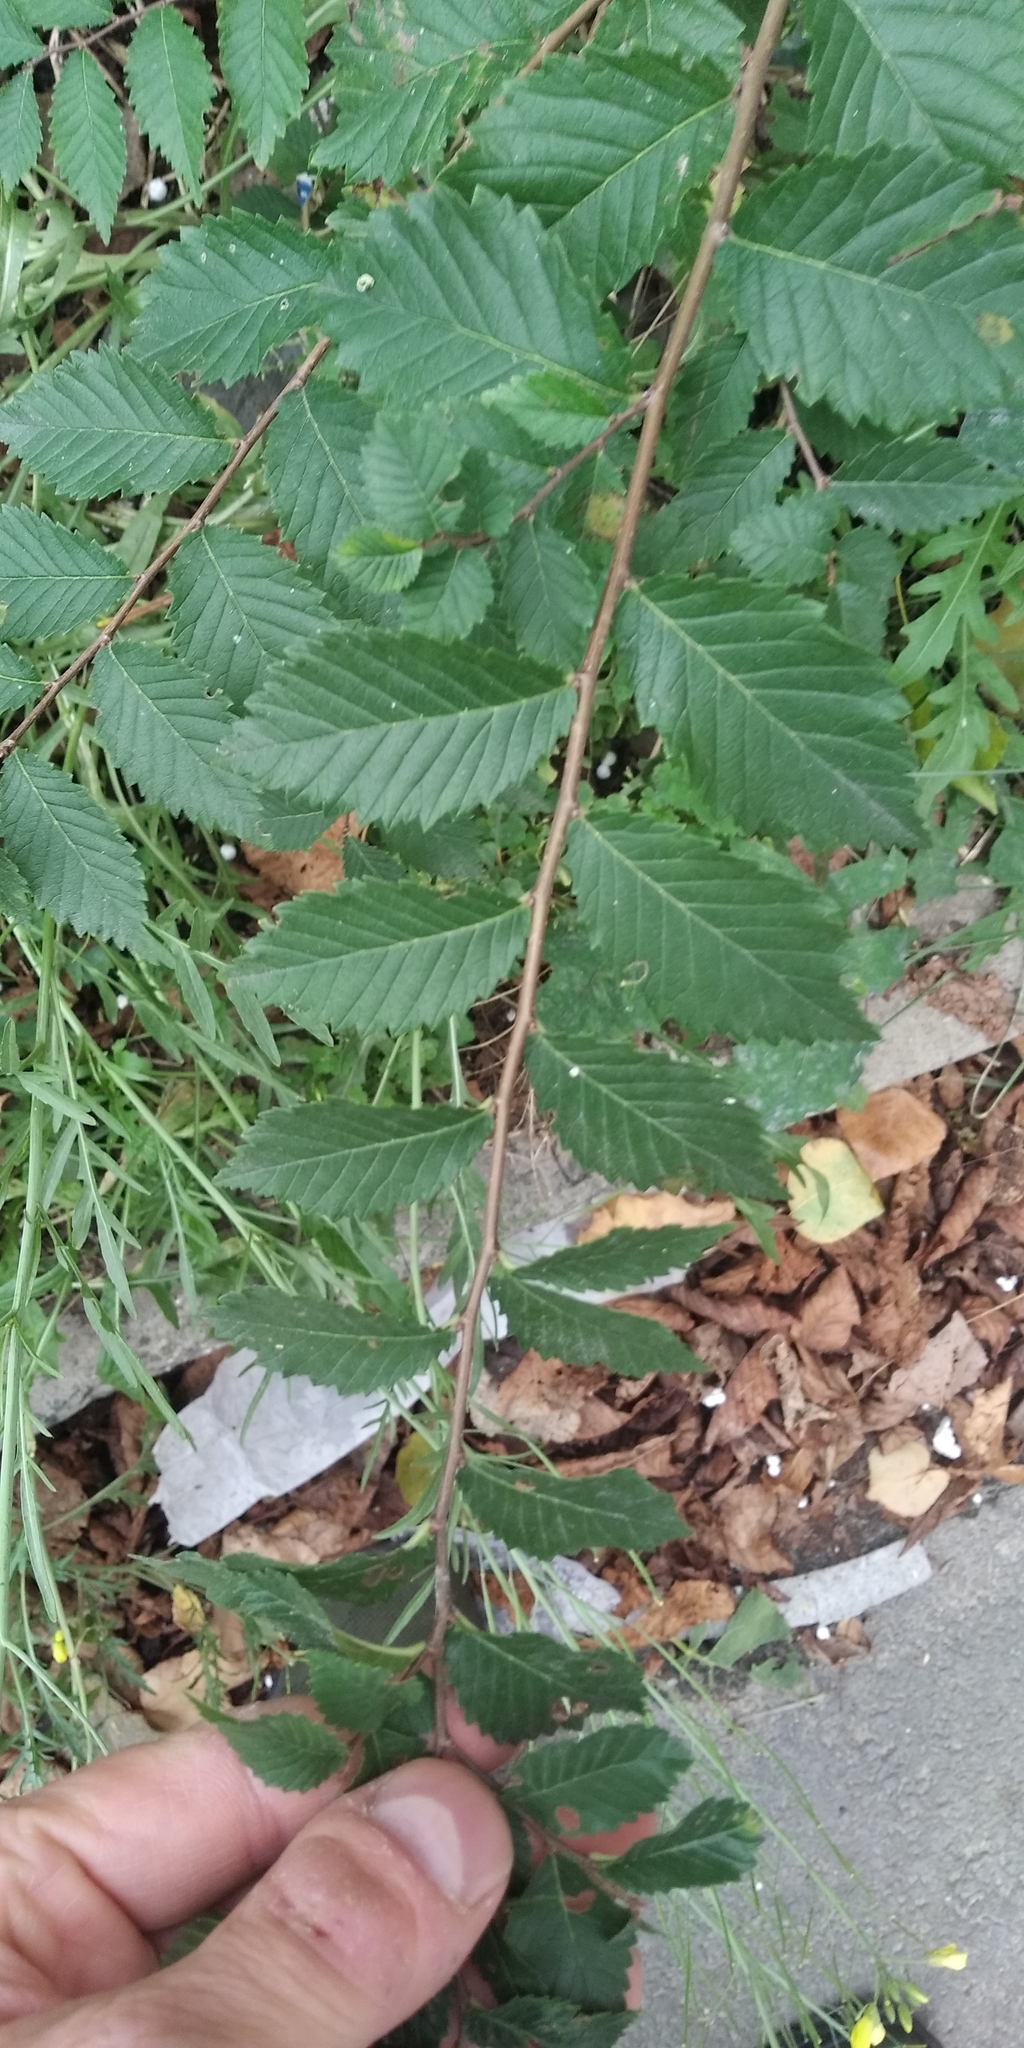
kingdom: Plantae
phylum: Tracheophyta
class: Magnoliopsida
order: Rosales
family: Ulmaceae
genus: Ulmus
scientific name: Ulmus pumila
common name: Siberian elm
